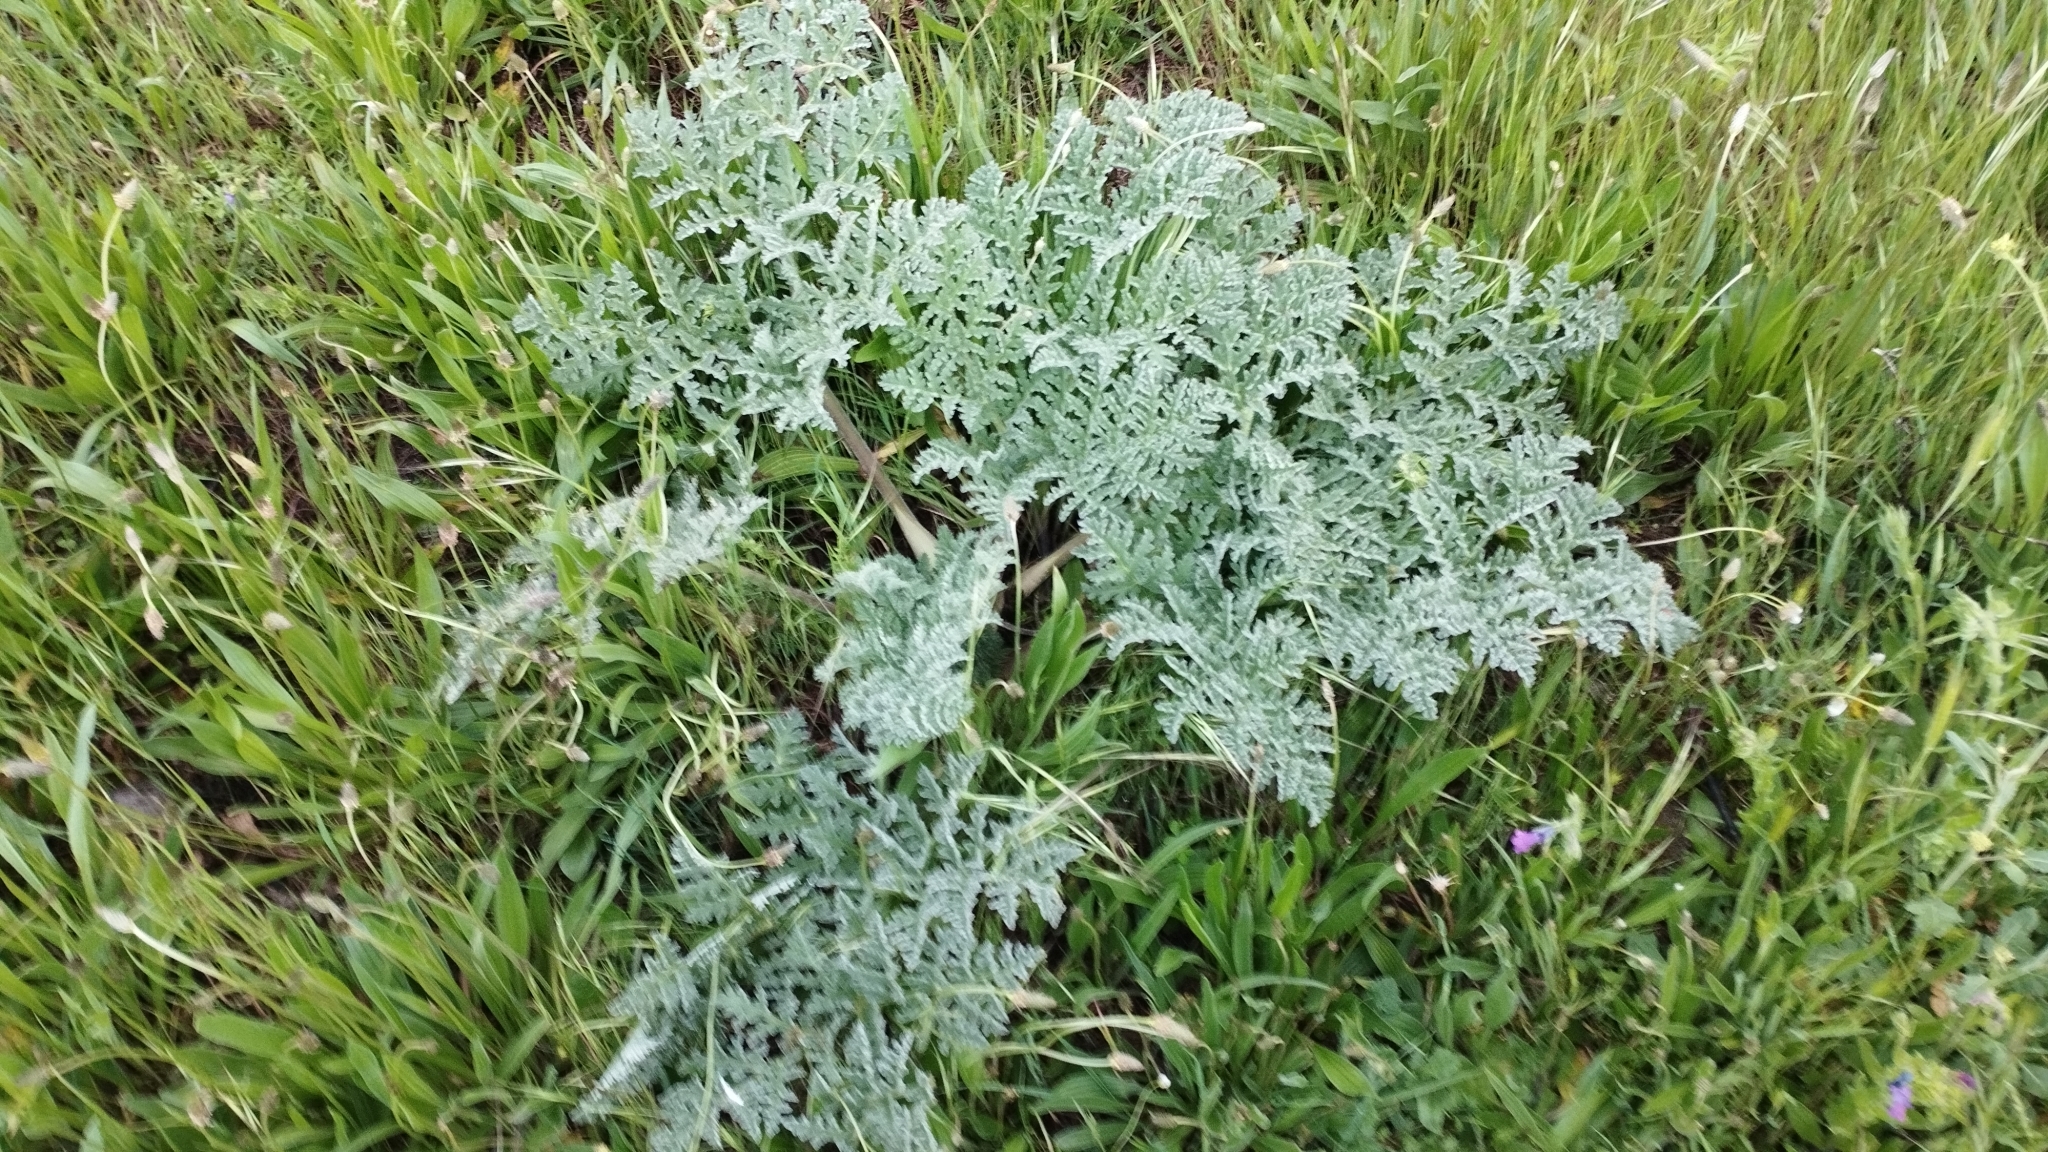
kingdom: Plantae
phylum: Tracheophyta
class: Magnoliopsida
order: Apiales
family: Apiaceae
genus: Thapsia
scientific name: Thapsia villosa
